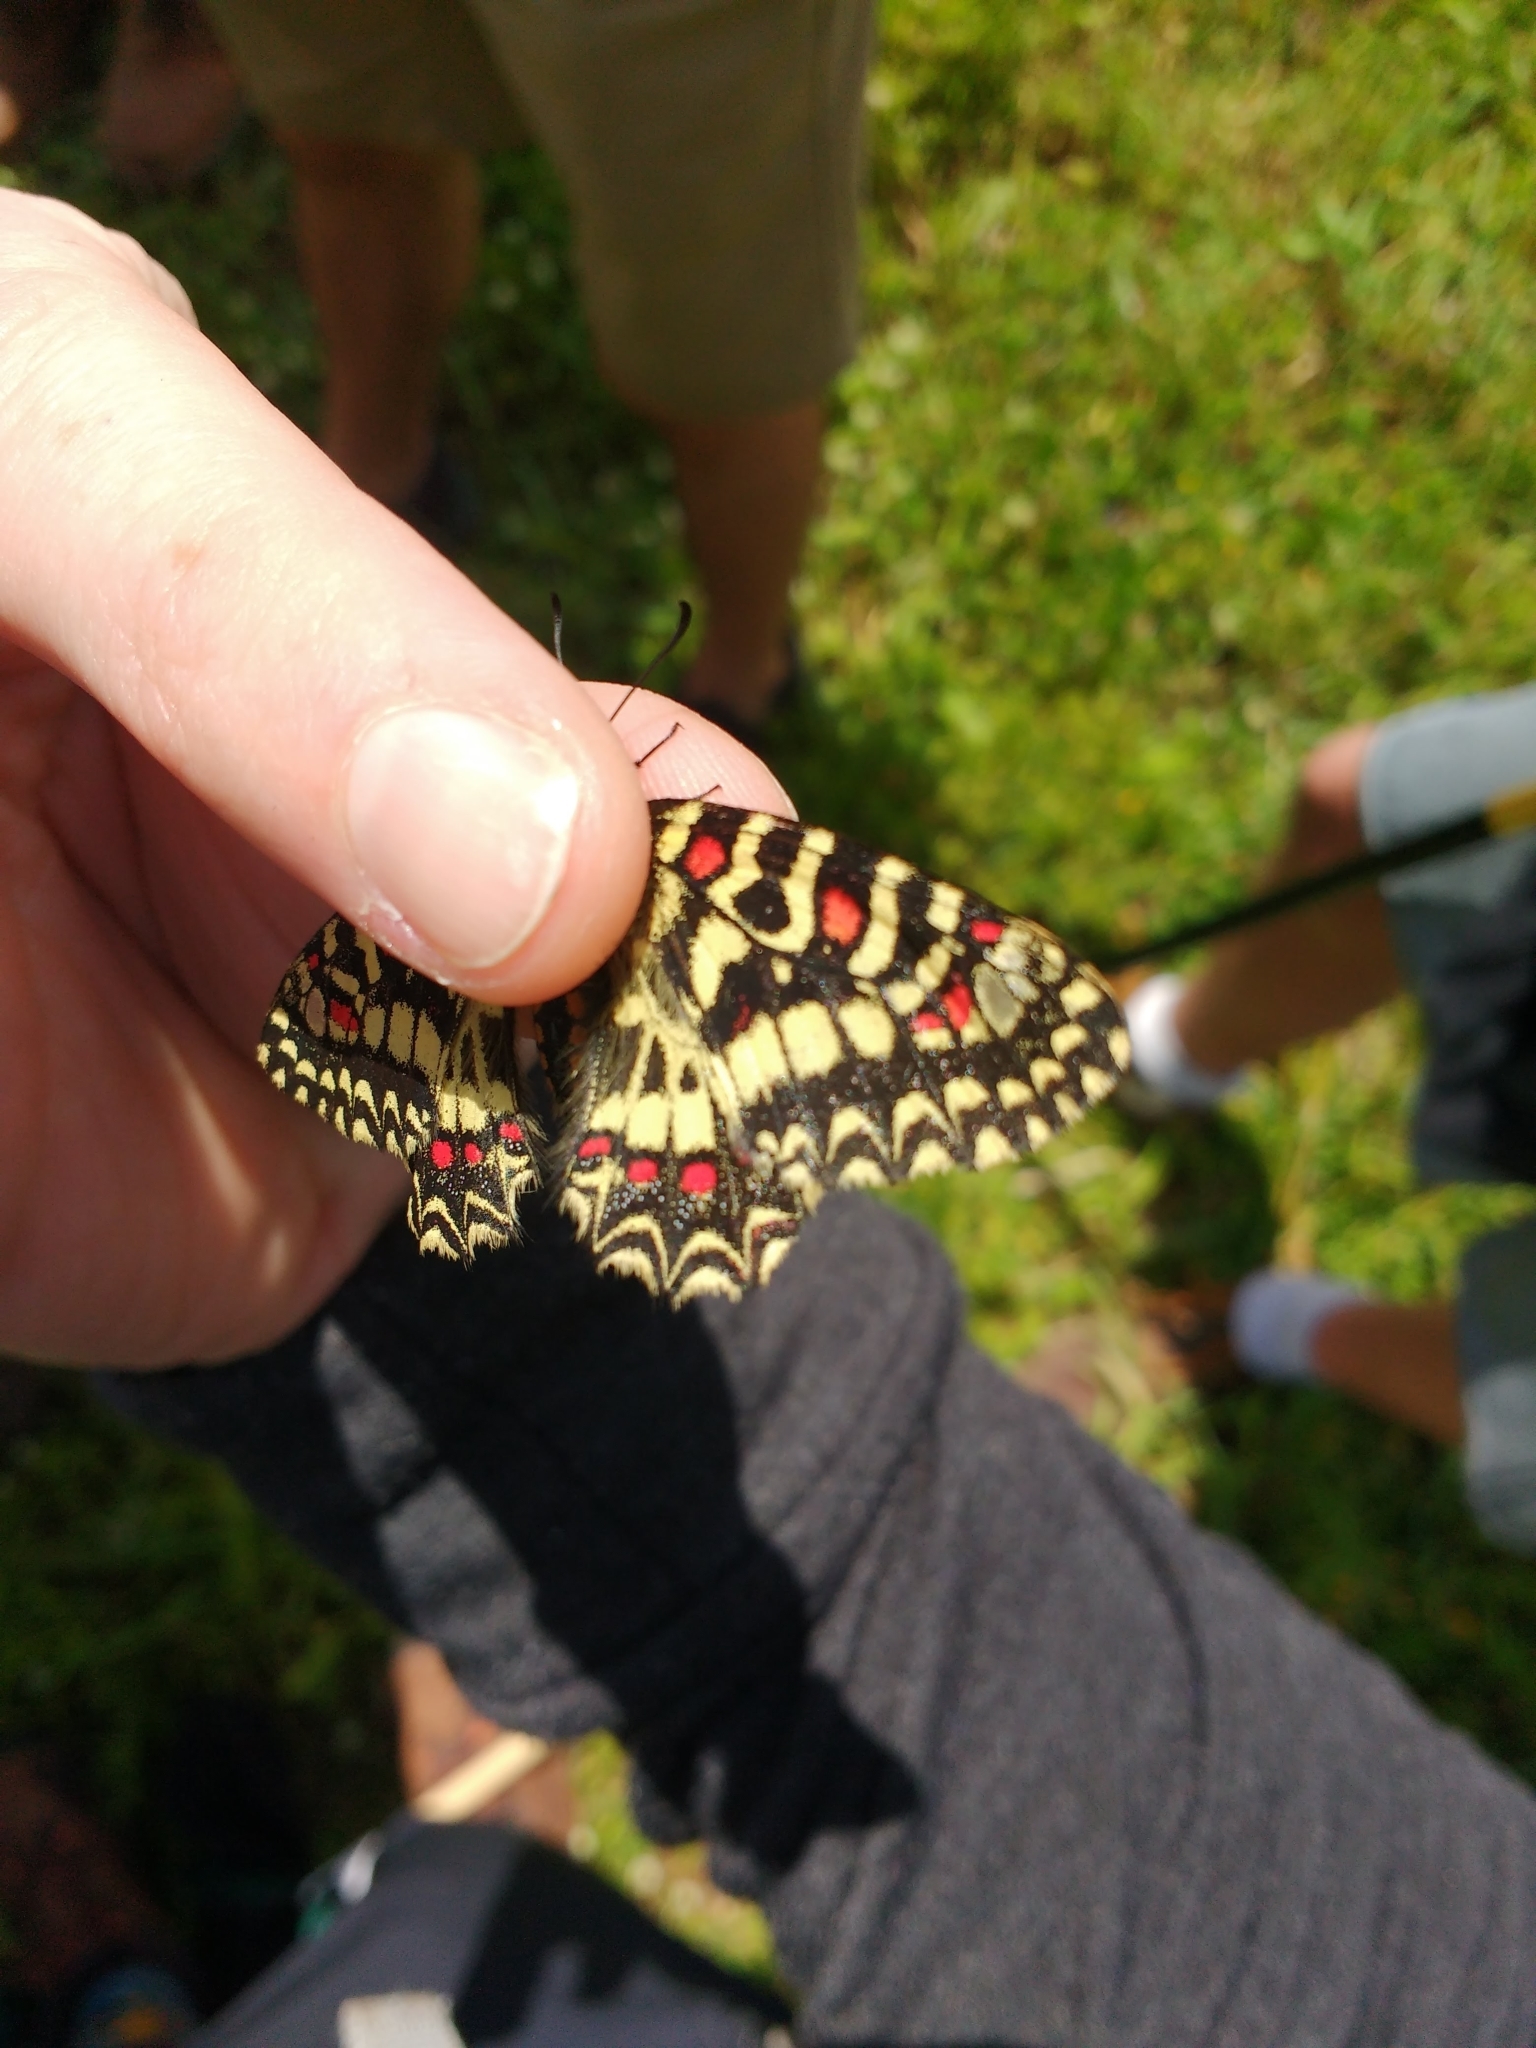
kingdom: Animalia
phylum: Arthropoda
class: Insecta
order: Lepidoptera
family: Papilionidae
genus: Zerynthia
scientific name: Zerynthia rumina
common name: Spanish festoon
